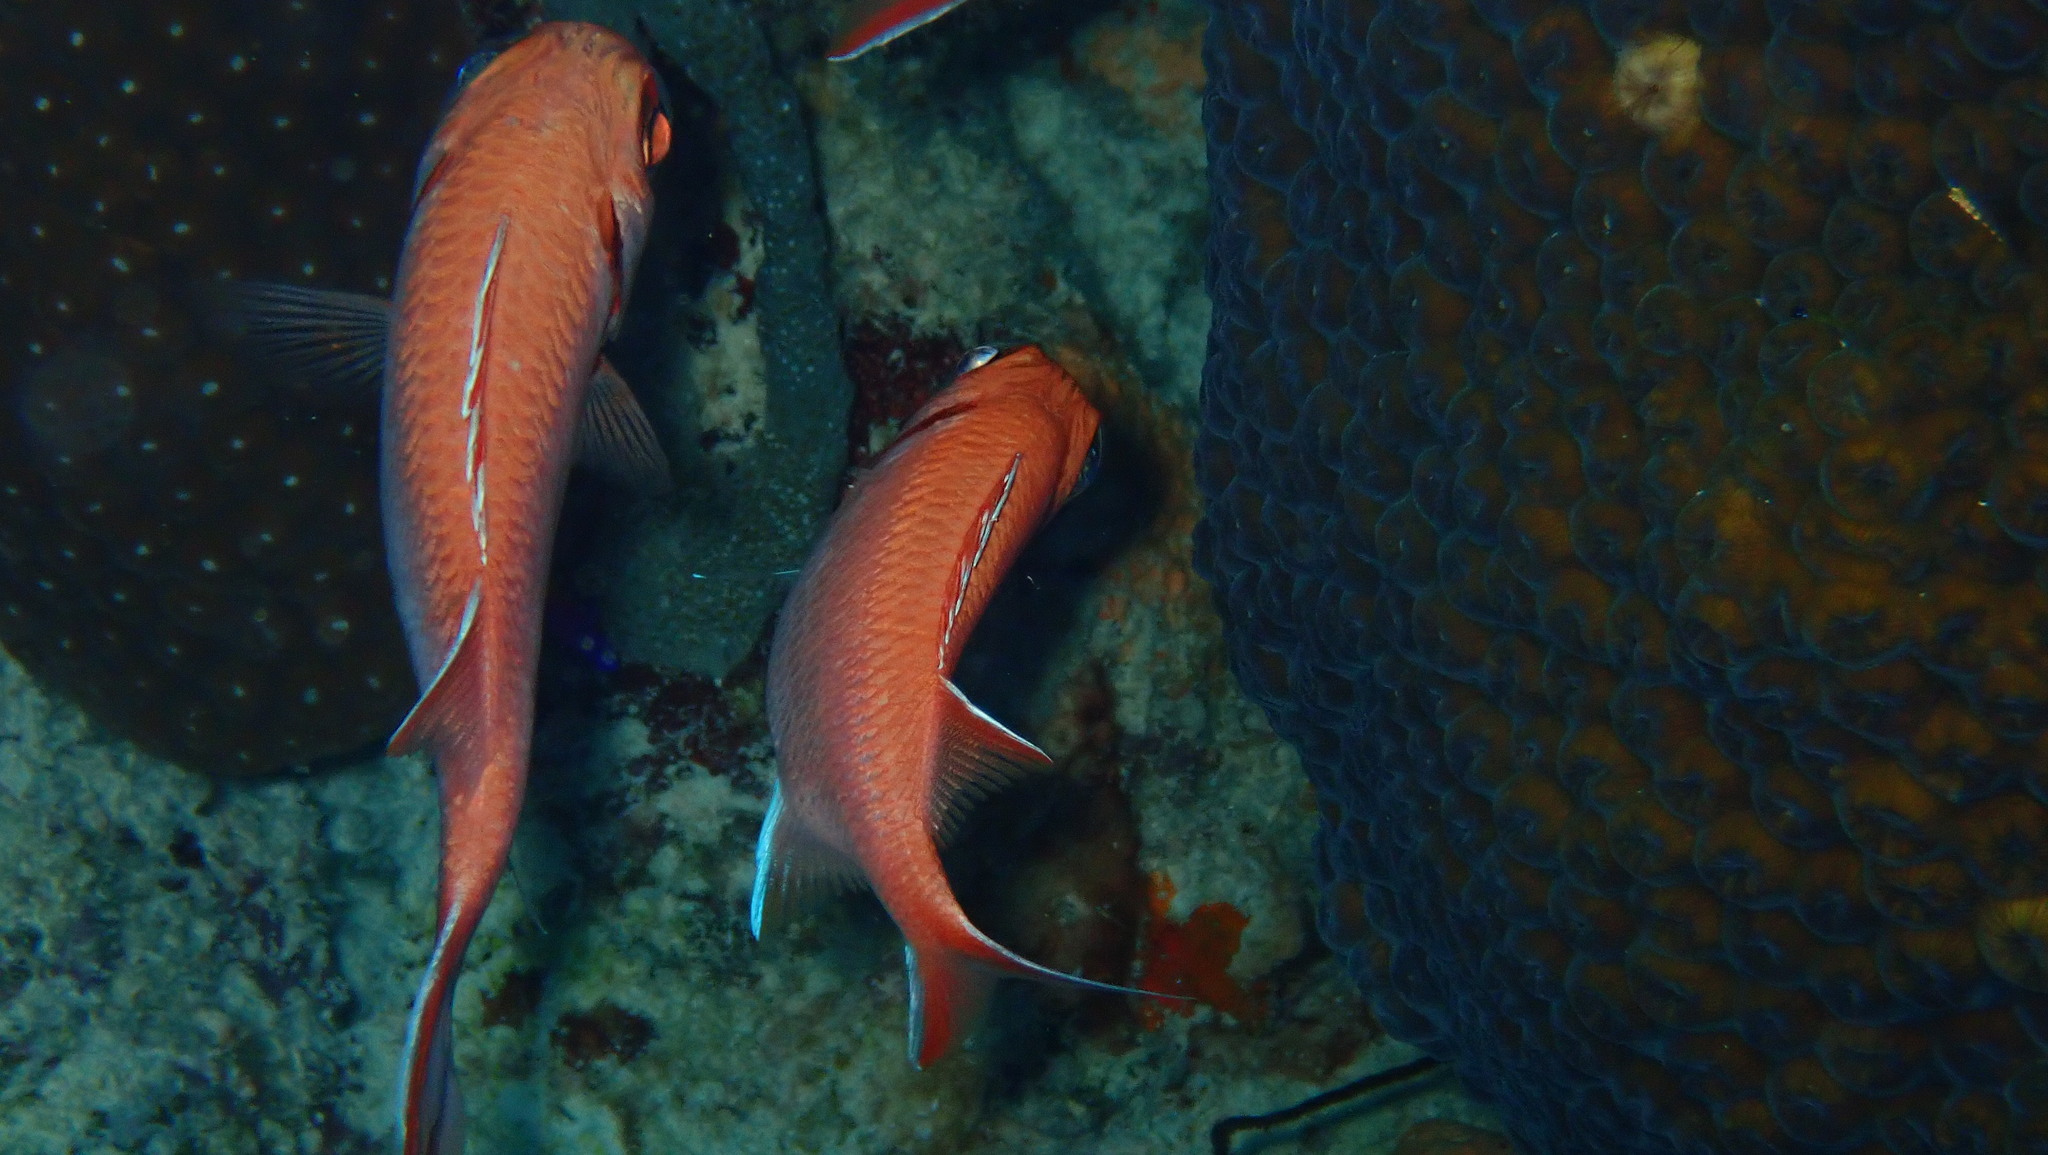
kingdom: Animalia
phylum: Chordata
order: Beryciformes
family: Holocentridae
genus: Myripristis
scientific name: Myripristis jacobus
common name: Blackbar soldierfish
